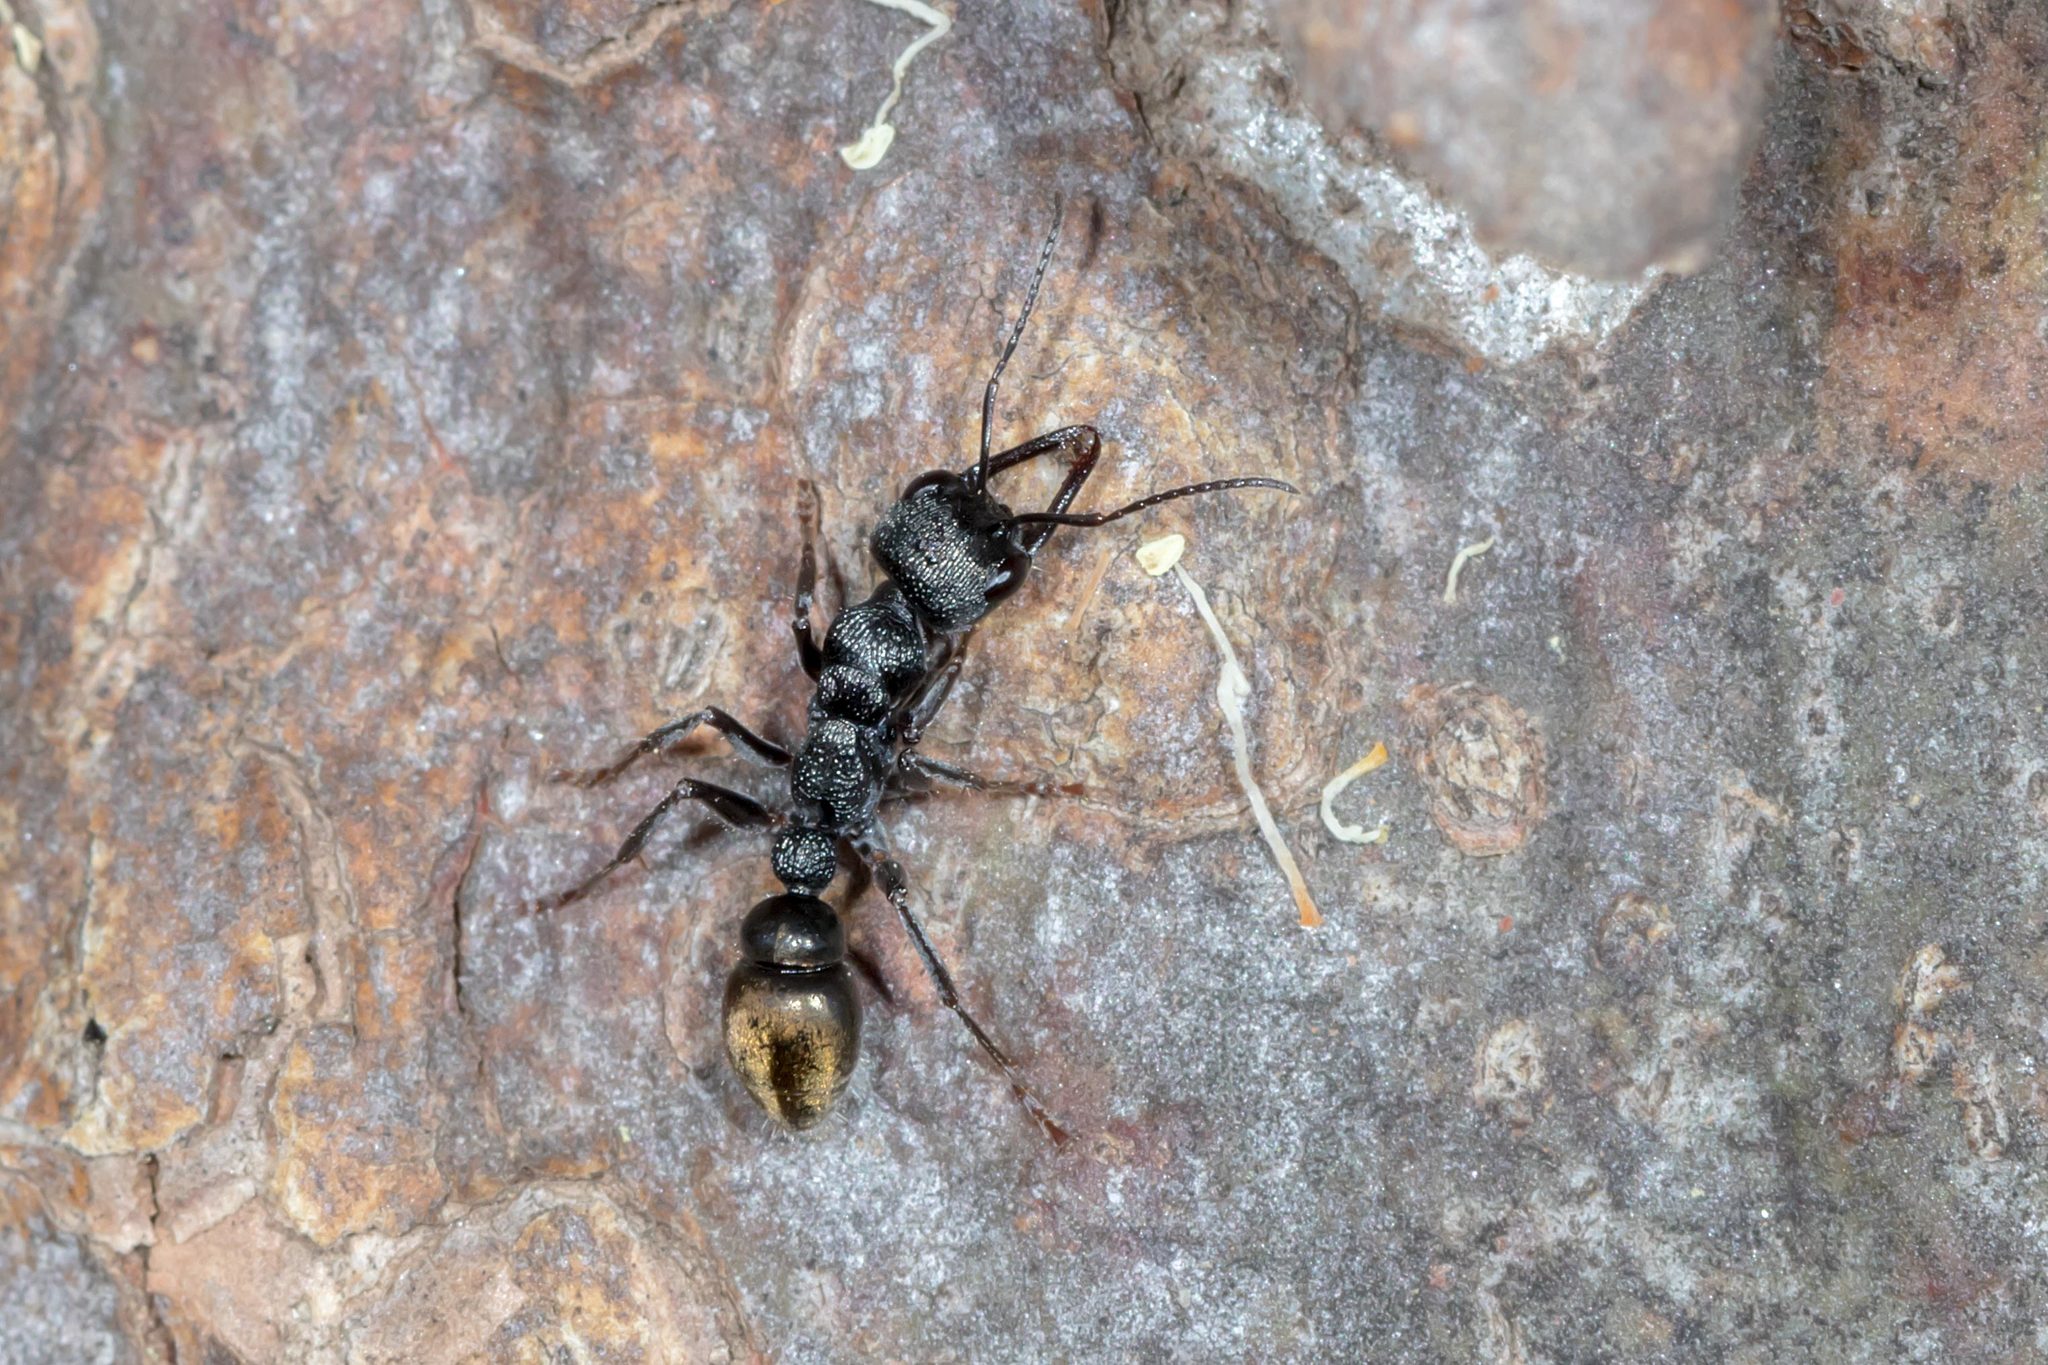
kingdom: Animalia
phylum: Arthropoda
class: Insecta
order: Hymenoptera
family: Formicidae
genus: Myrmecia
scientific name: Myrmecia piliventris
